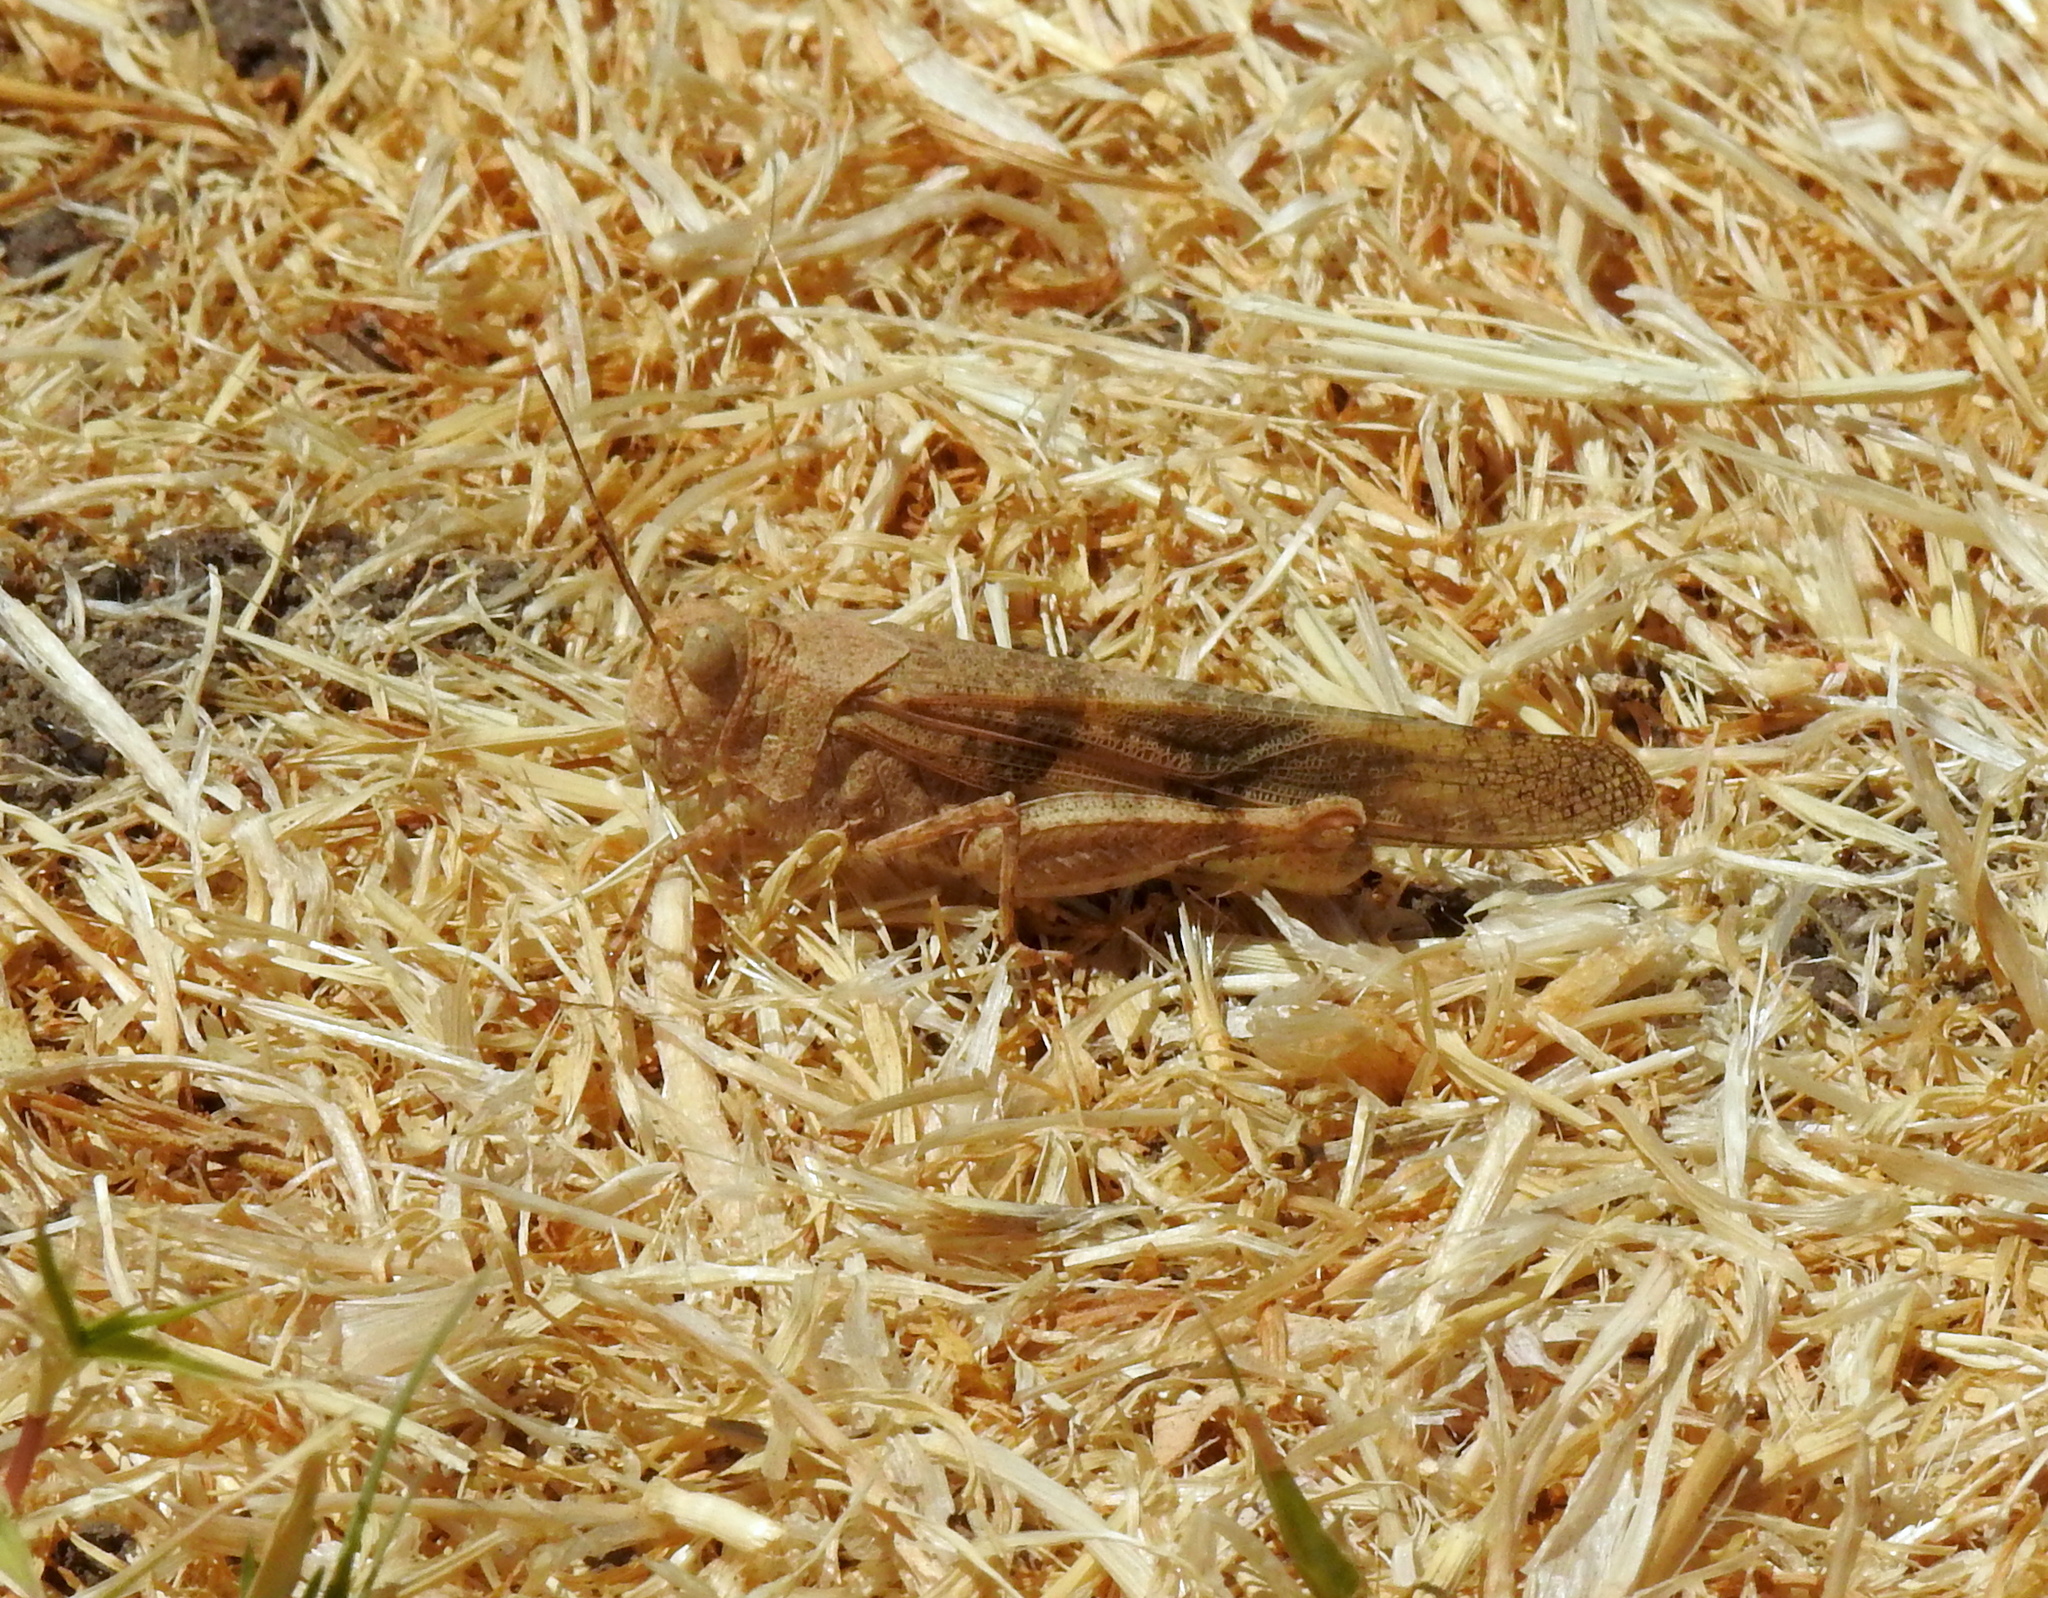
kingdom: Animalia
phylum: Arthropoda
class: Insecta
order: Orthoptera
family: Acrididae
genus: Trimerotropis
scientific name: Trimerotropis pallidipennis
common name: Pallid-winged grasshopper
